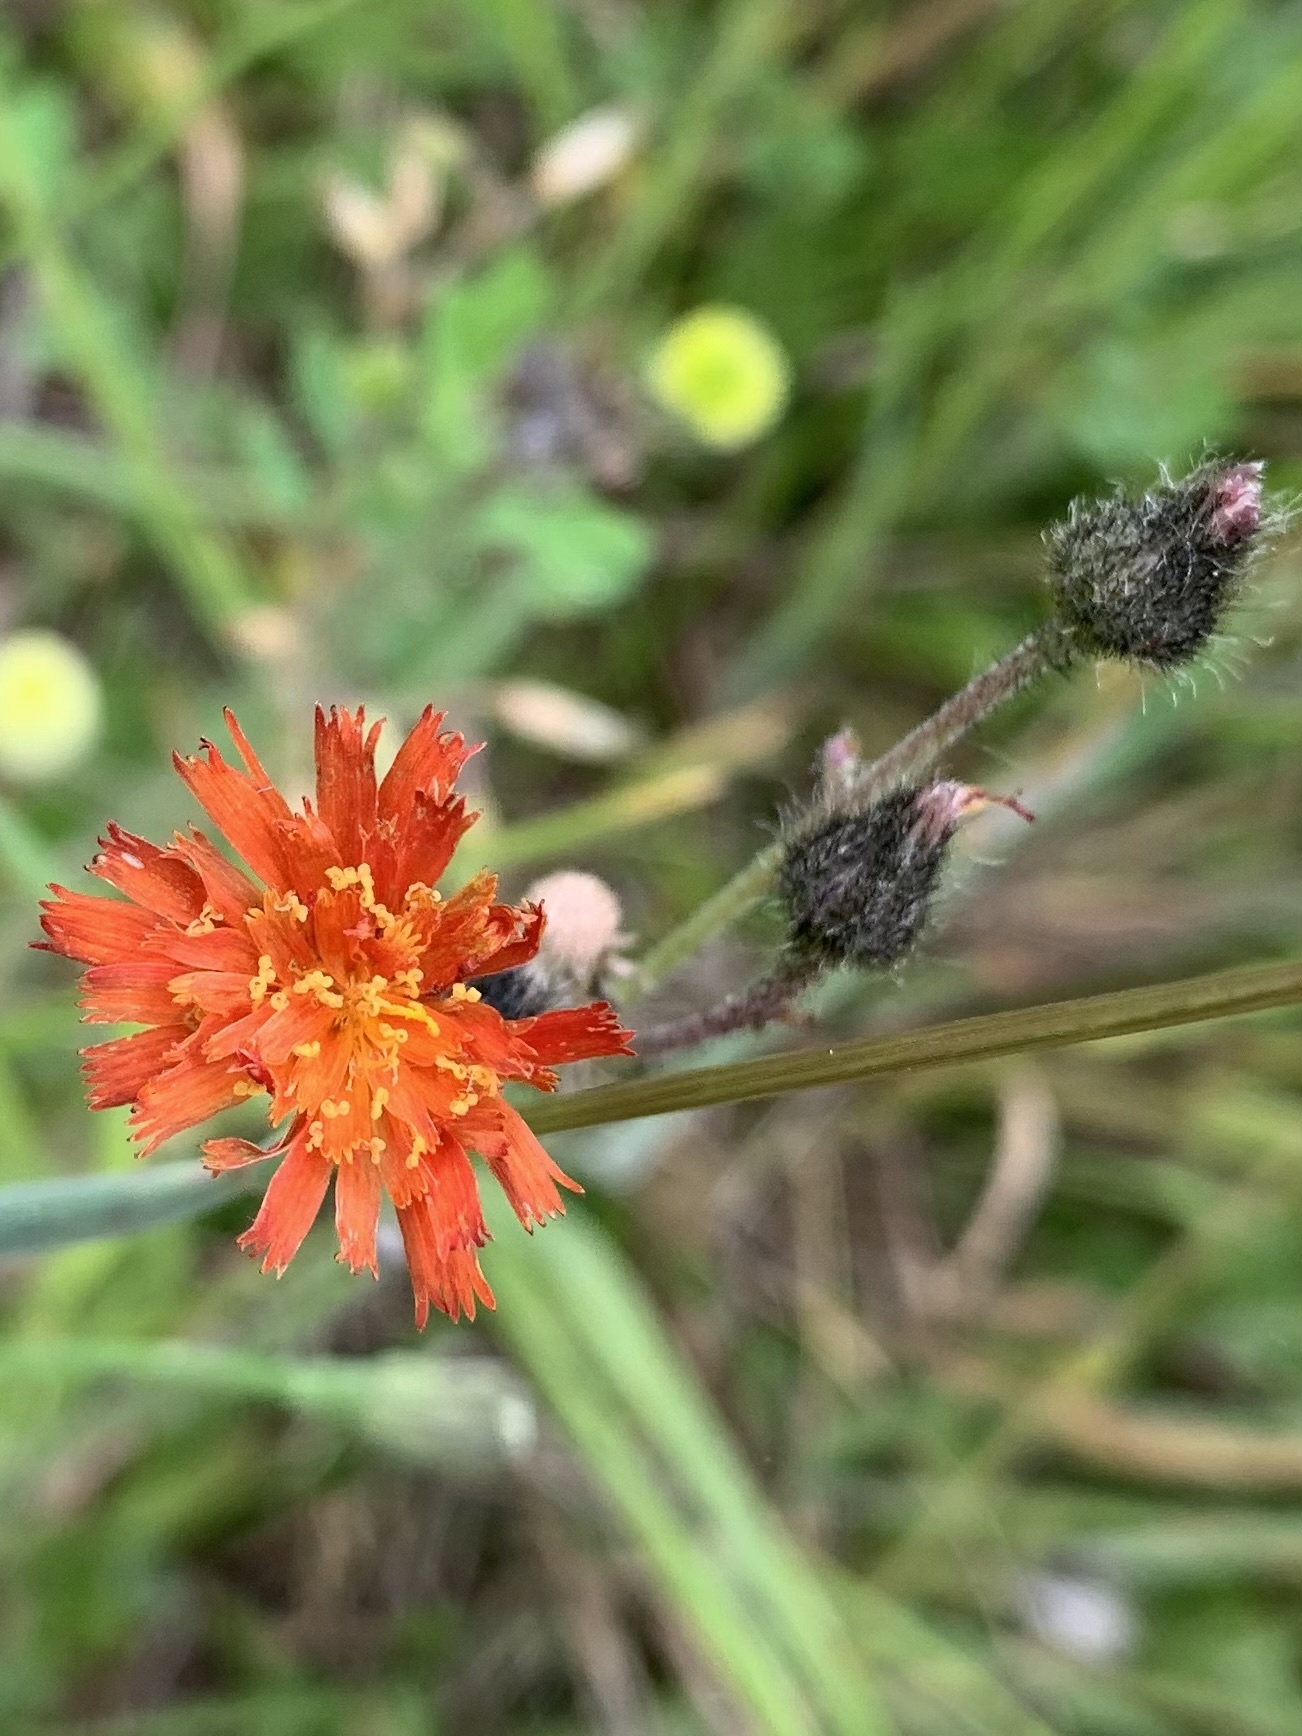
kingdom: Plantae
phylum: Tracheophyta
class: Magnoliopsida
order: Asterales
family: Asteraceae
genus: Pilosella
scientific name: Pilosella aurantiaca
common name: Fox-and-cubs
